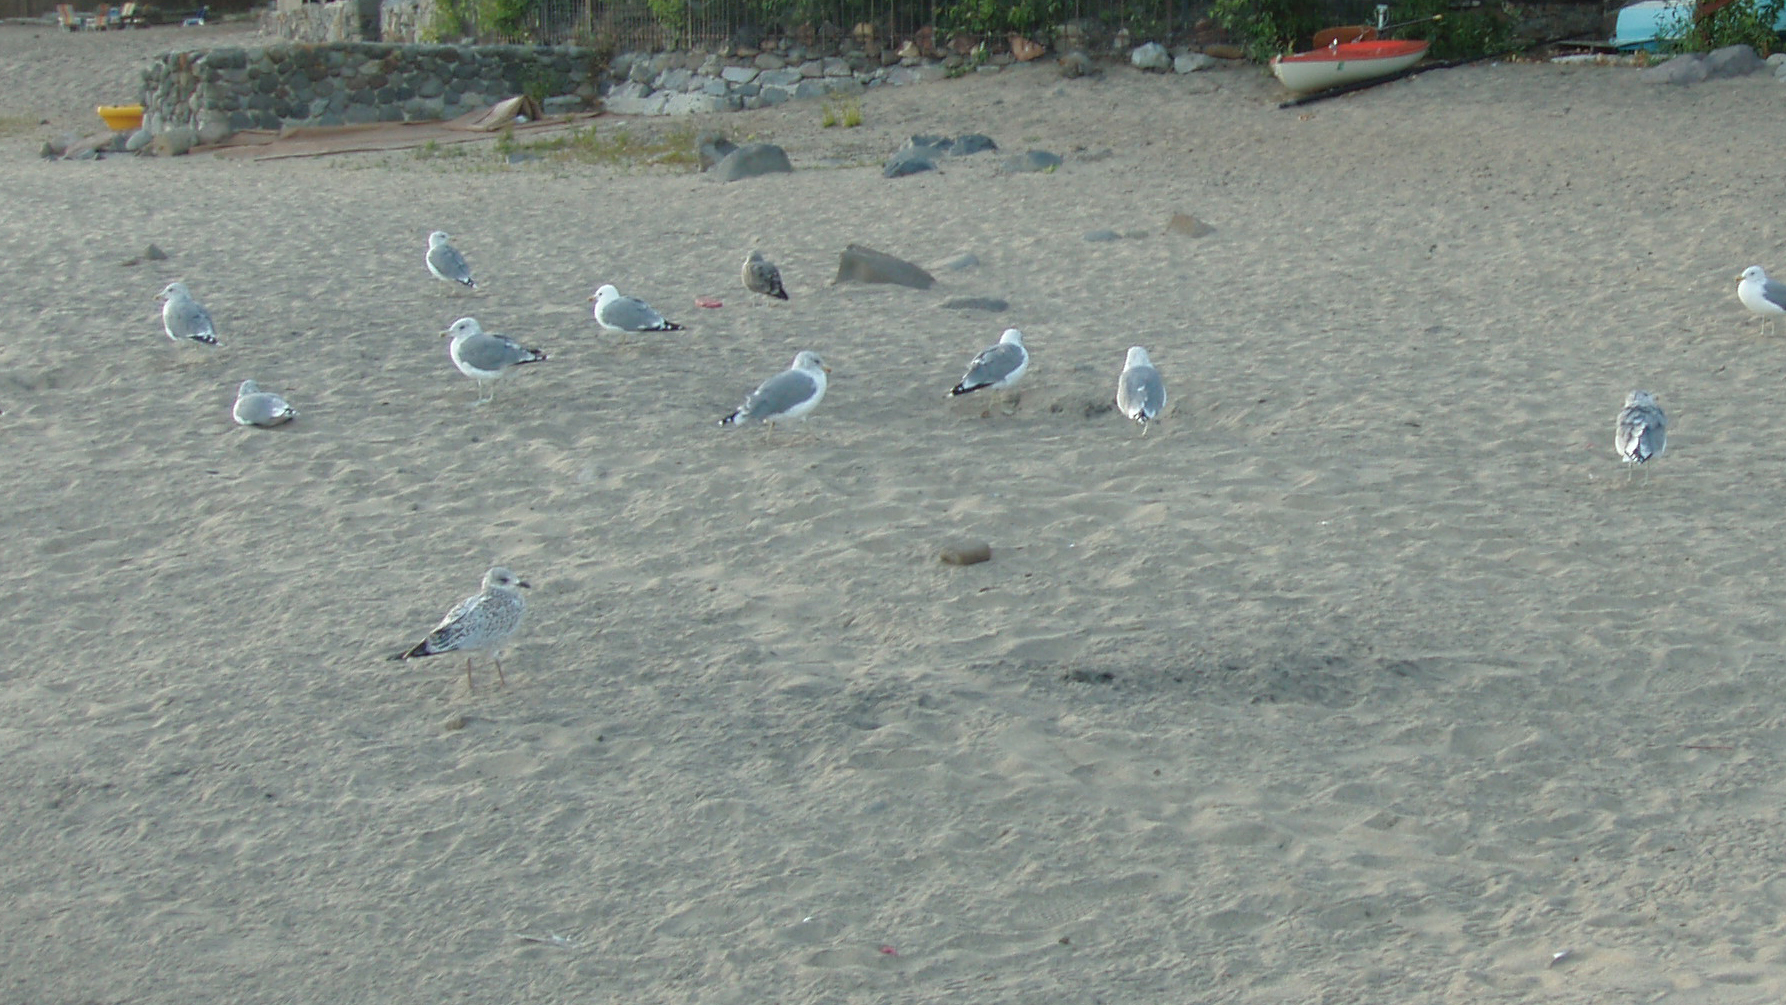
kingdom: Animalia
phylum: Chordata
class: Aves
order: Charadriiformes
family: Laridae
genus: Larus
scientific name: Larus californicus
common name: California gull
